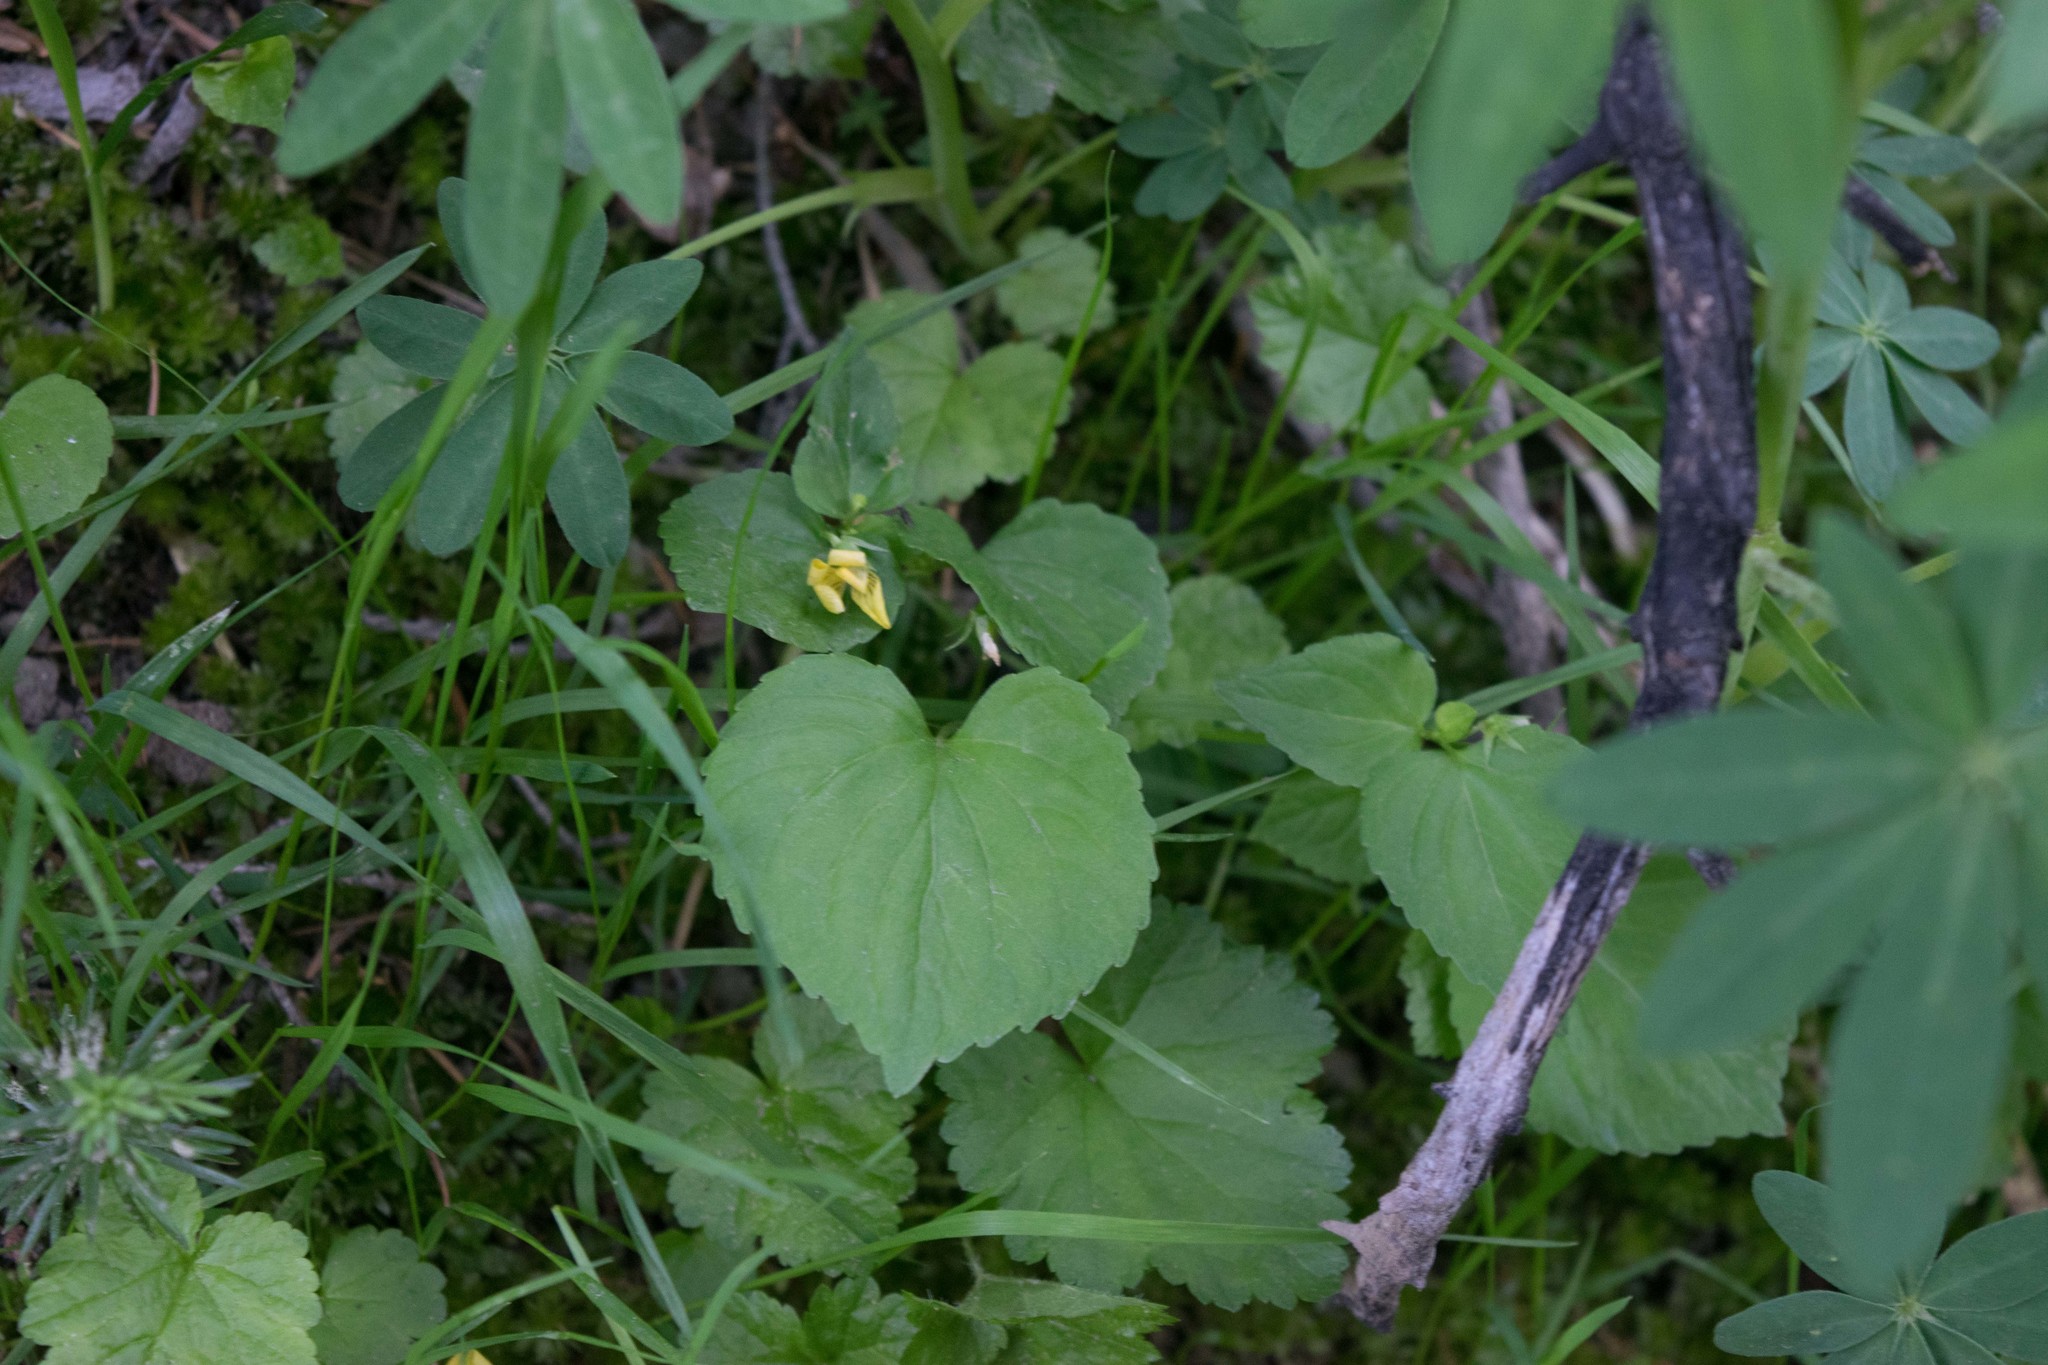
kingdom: Plantae
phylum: Tracheophyta
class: Magnoliopsida
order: Malpighiales
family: Violaceae
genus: Viola
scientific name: Viola glabella
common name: Stream violet
